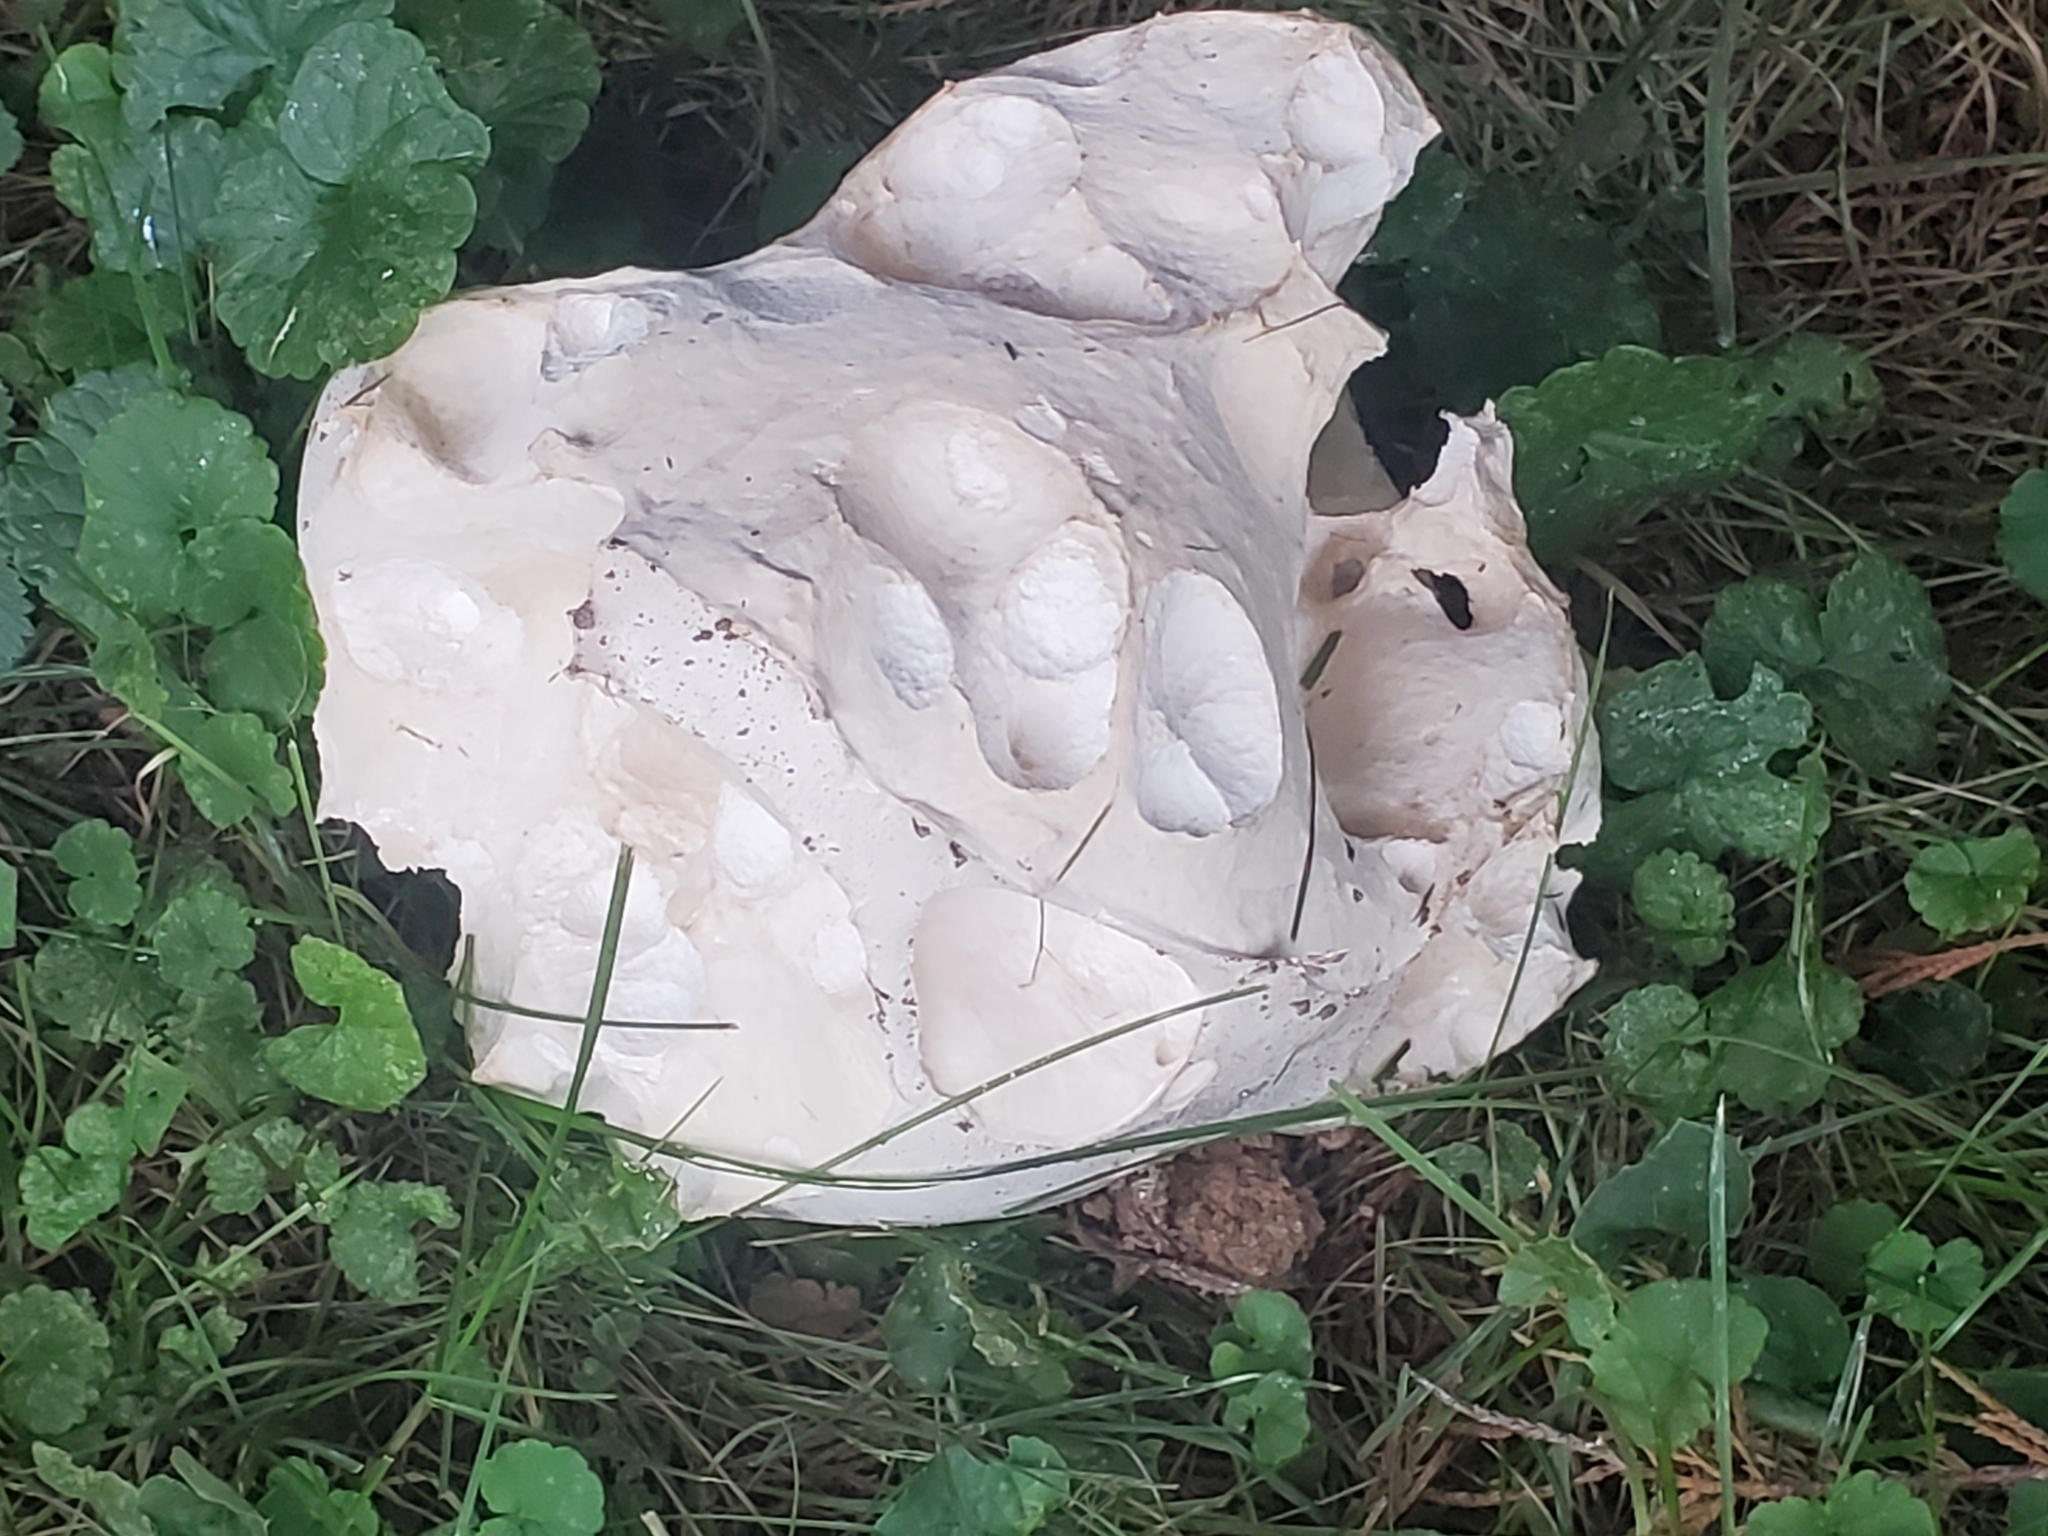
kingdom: Fungi
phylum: Basidiomycota
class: Agaricomycetes
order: Agaricales
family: Lycoperdaceae
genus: Calvatia
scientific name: Calvatia gigantea
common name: Giant puffball
